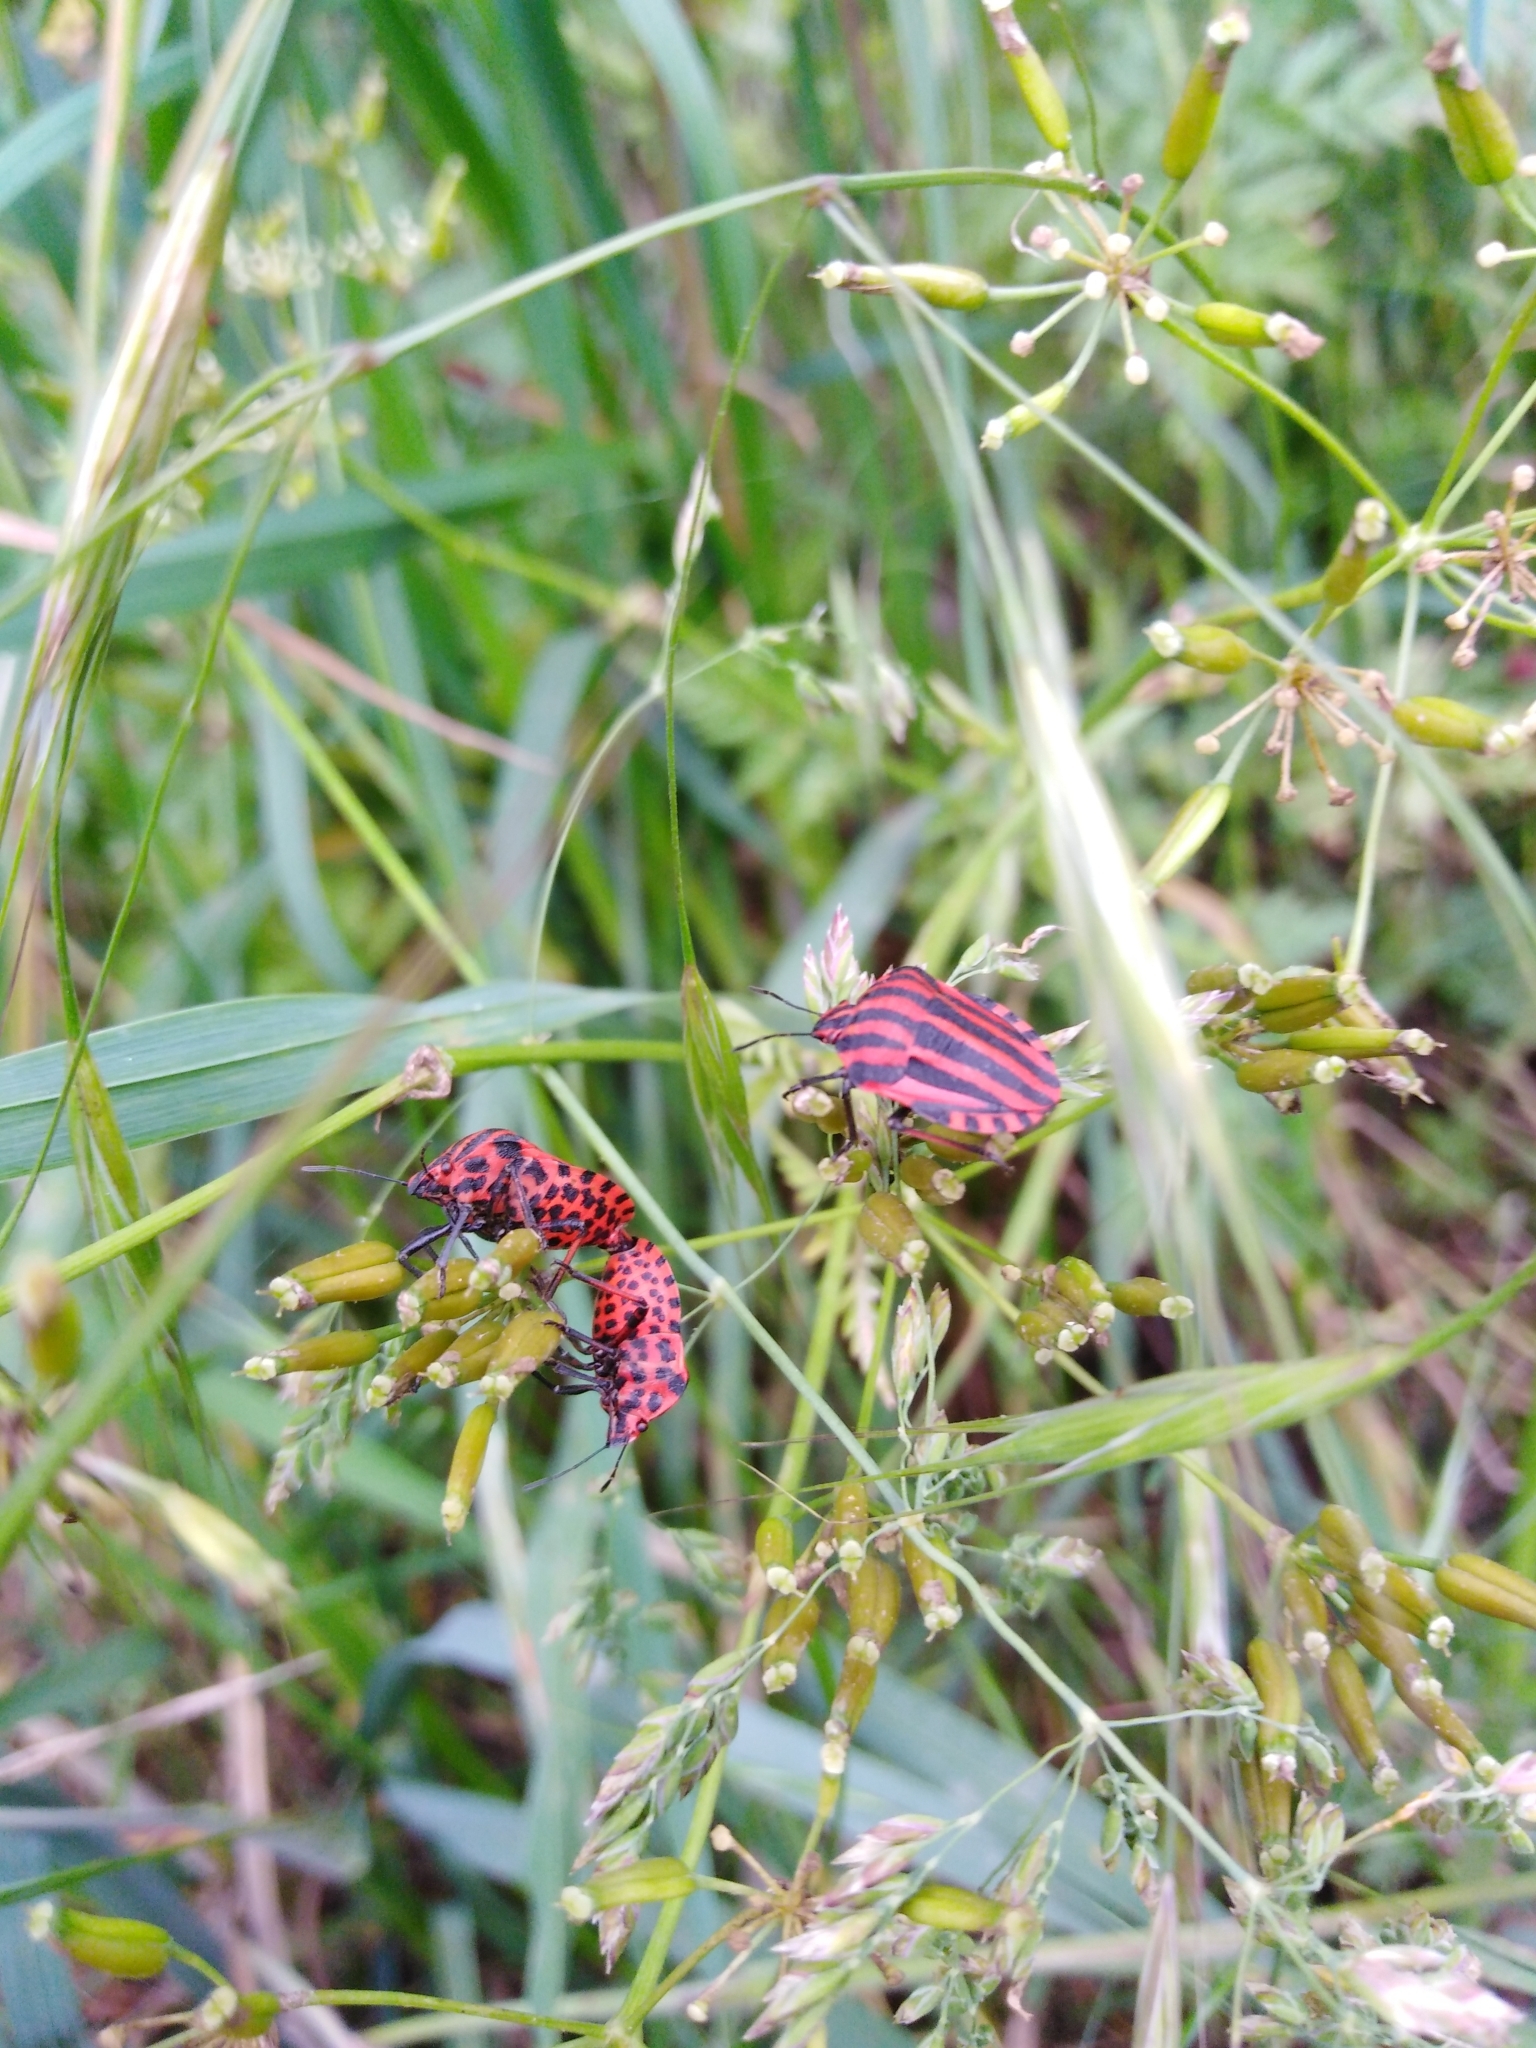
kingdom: Animalia
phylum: Arthropoda
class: Insecta
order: Hemiptera
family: Pentatomidae
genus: Graphosoma
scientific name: Graphosoma italicum
